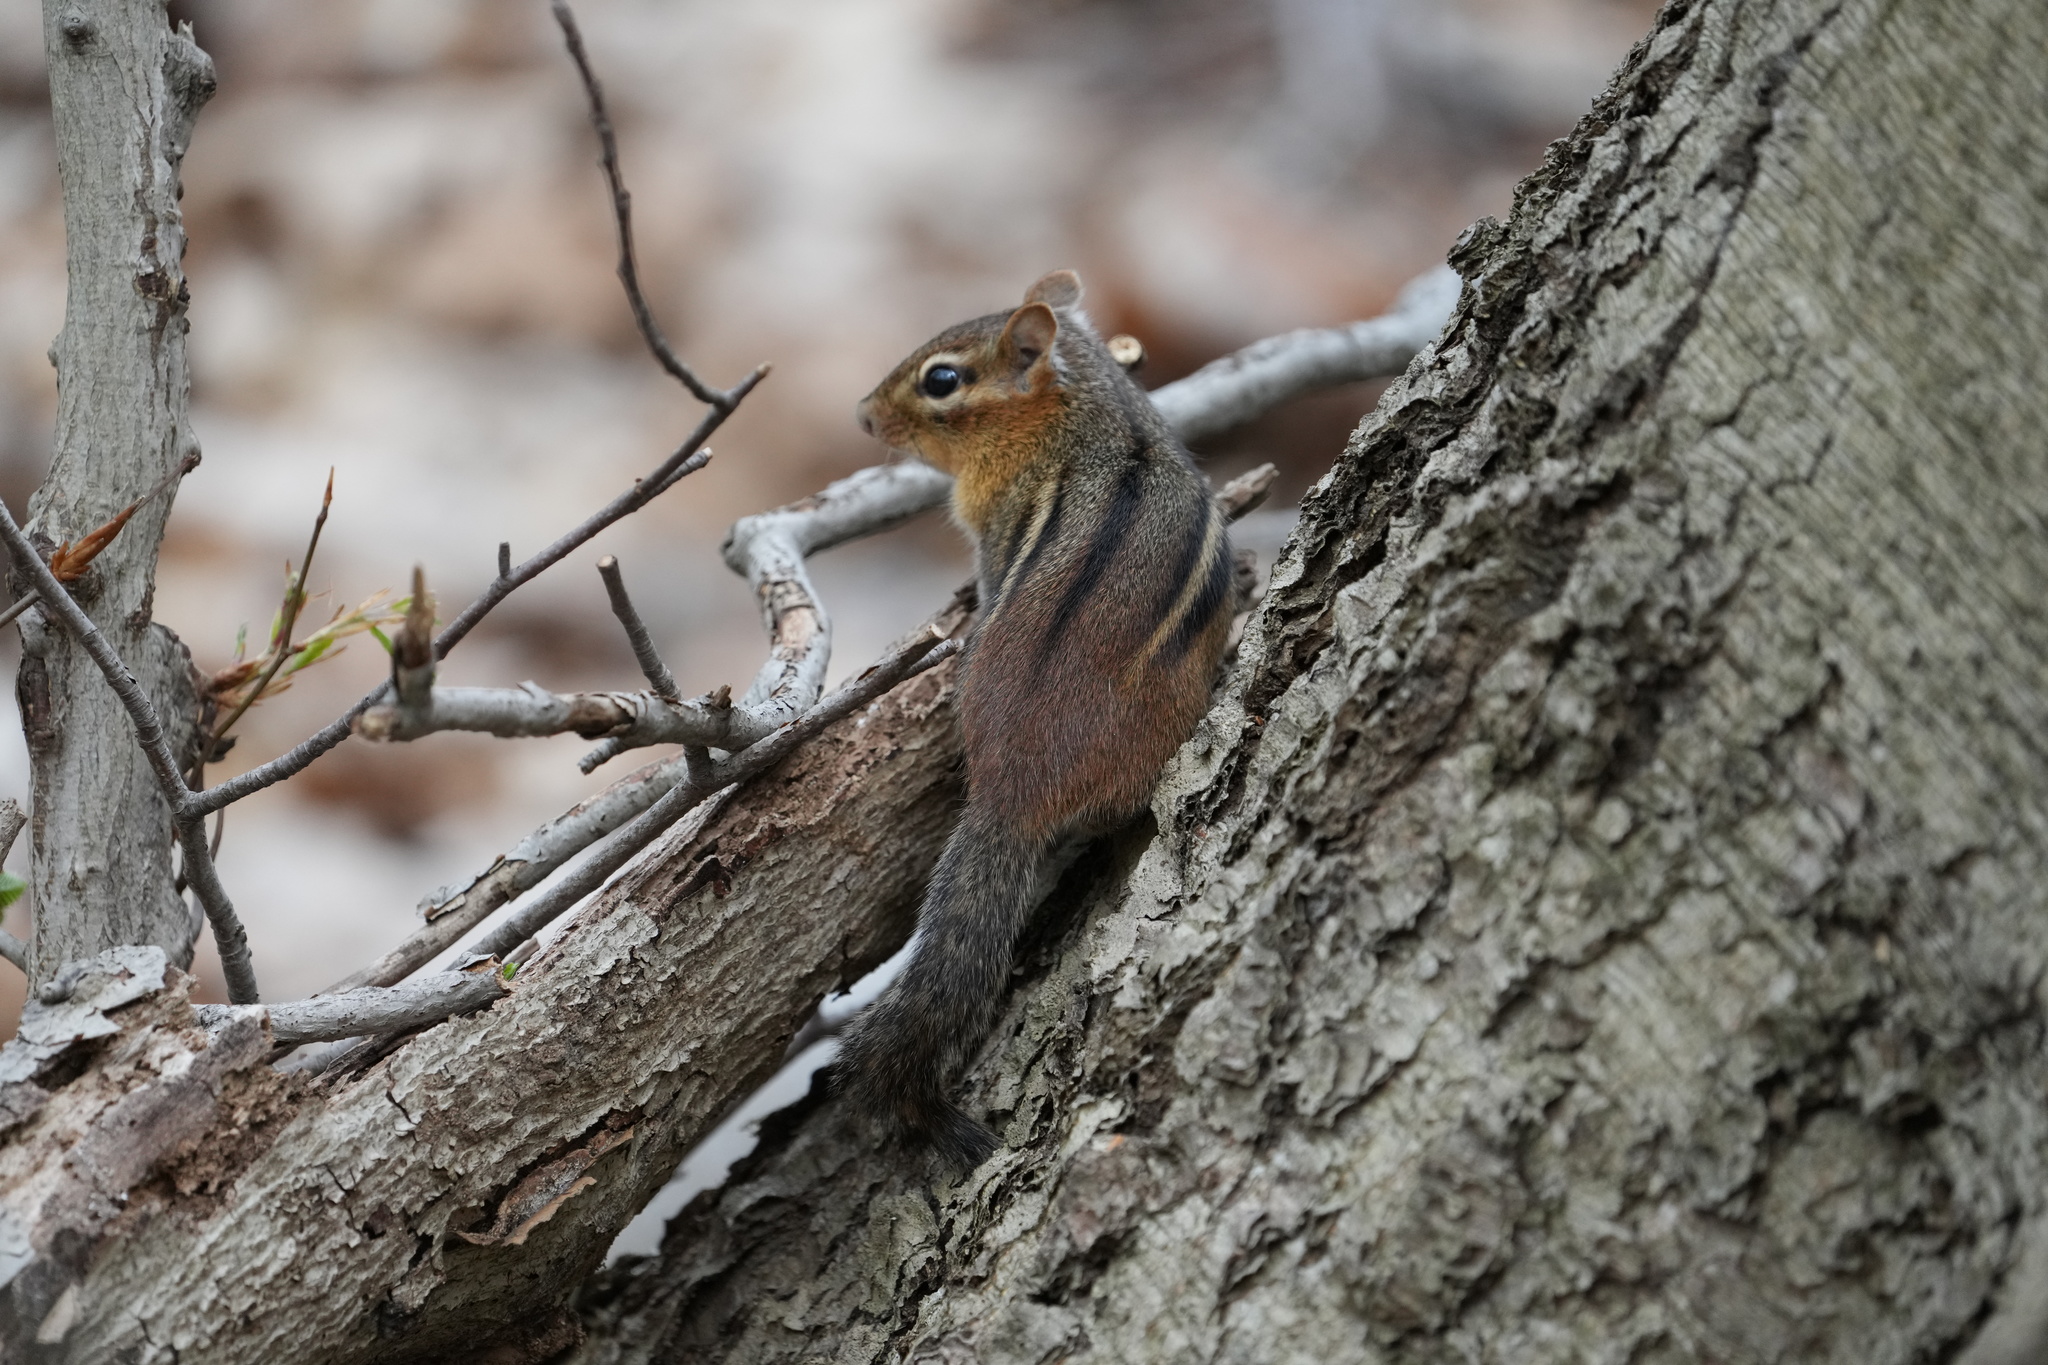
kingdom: Animalia
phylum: Chordata
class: Mammalia
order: Rodentia
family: Sciuridae
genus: Tamias
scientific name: Tamias striatus
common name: Eastern chipmunk
